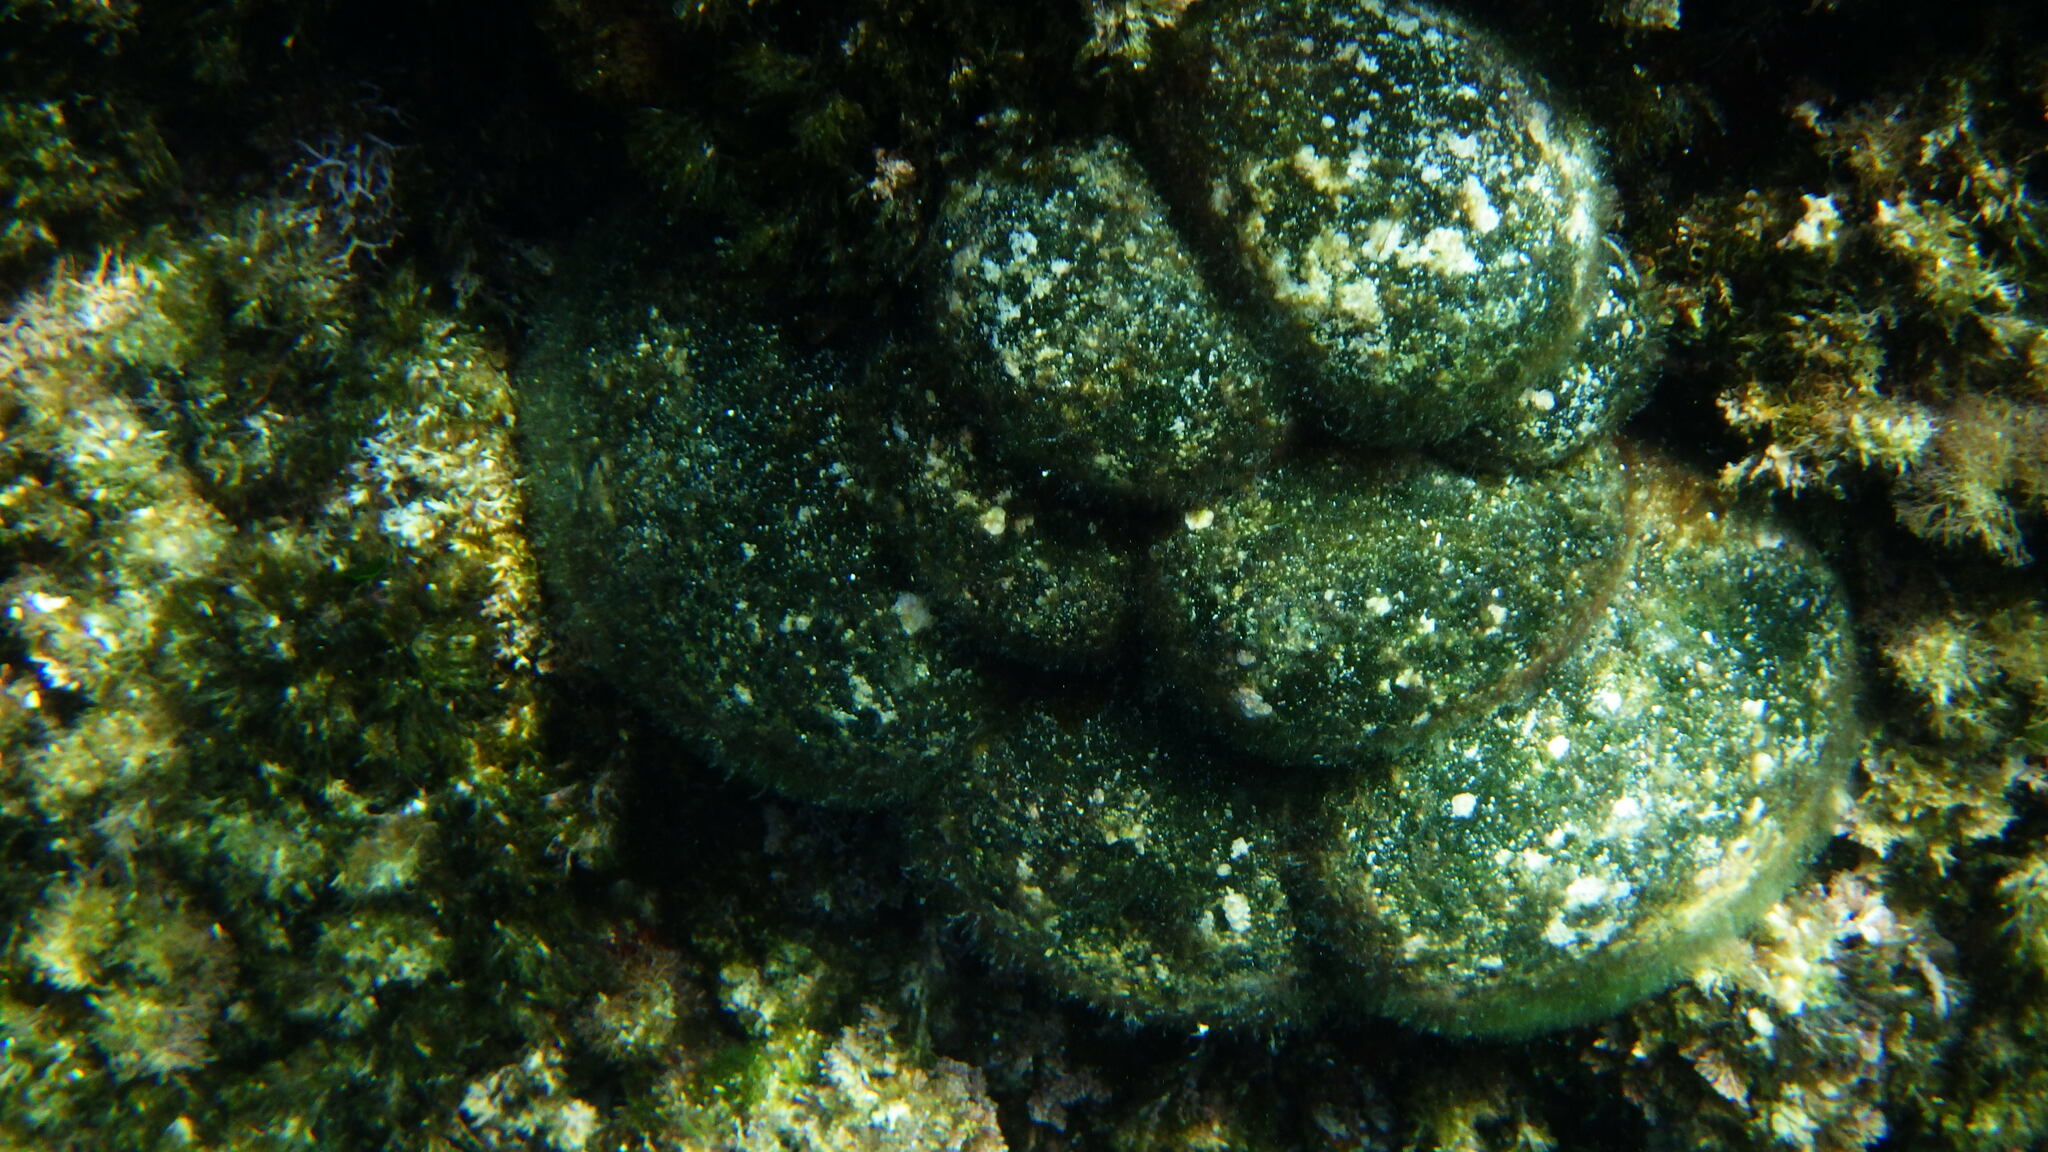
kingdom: Plantae
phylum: Chlorophyta
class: Ulvophyceae
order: Bryopsidales
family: Codiaceae
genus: Codium
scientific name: Codium bursa
